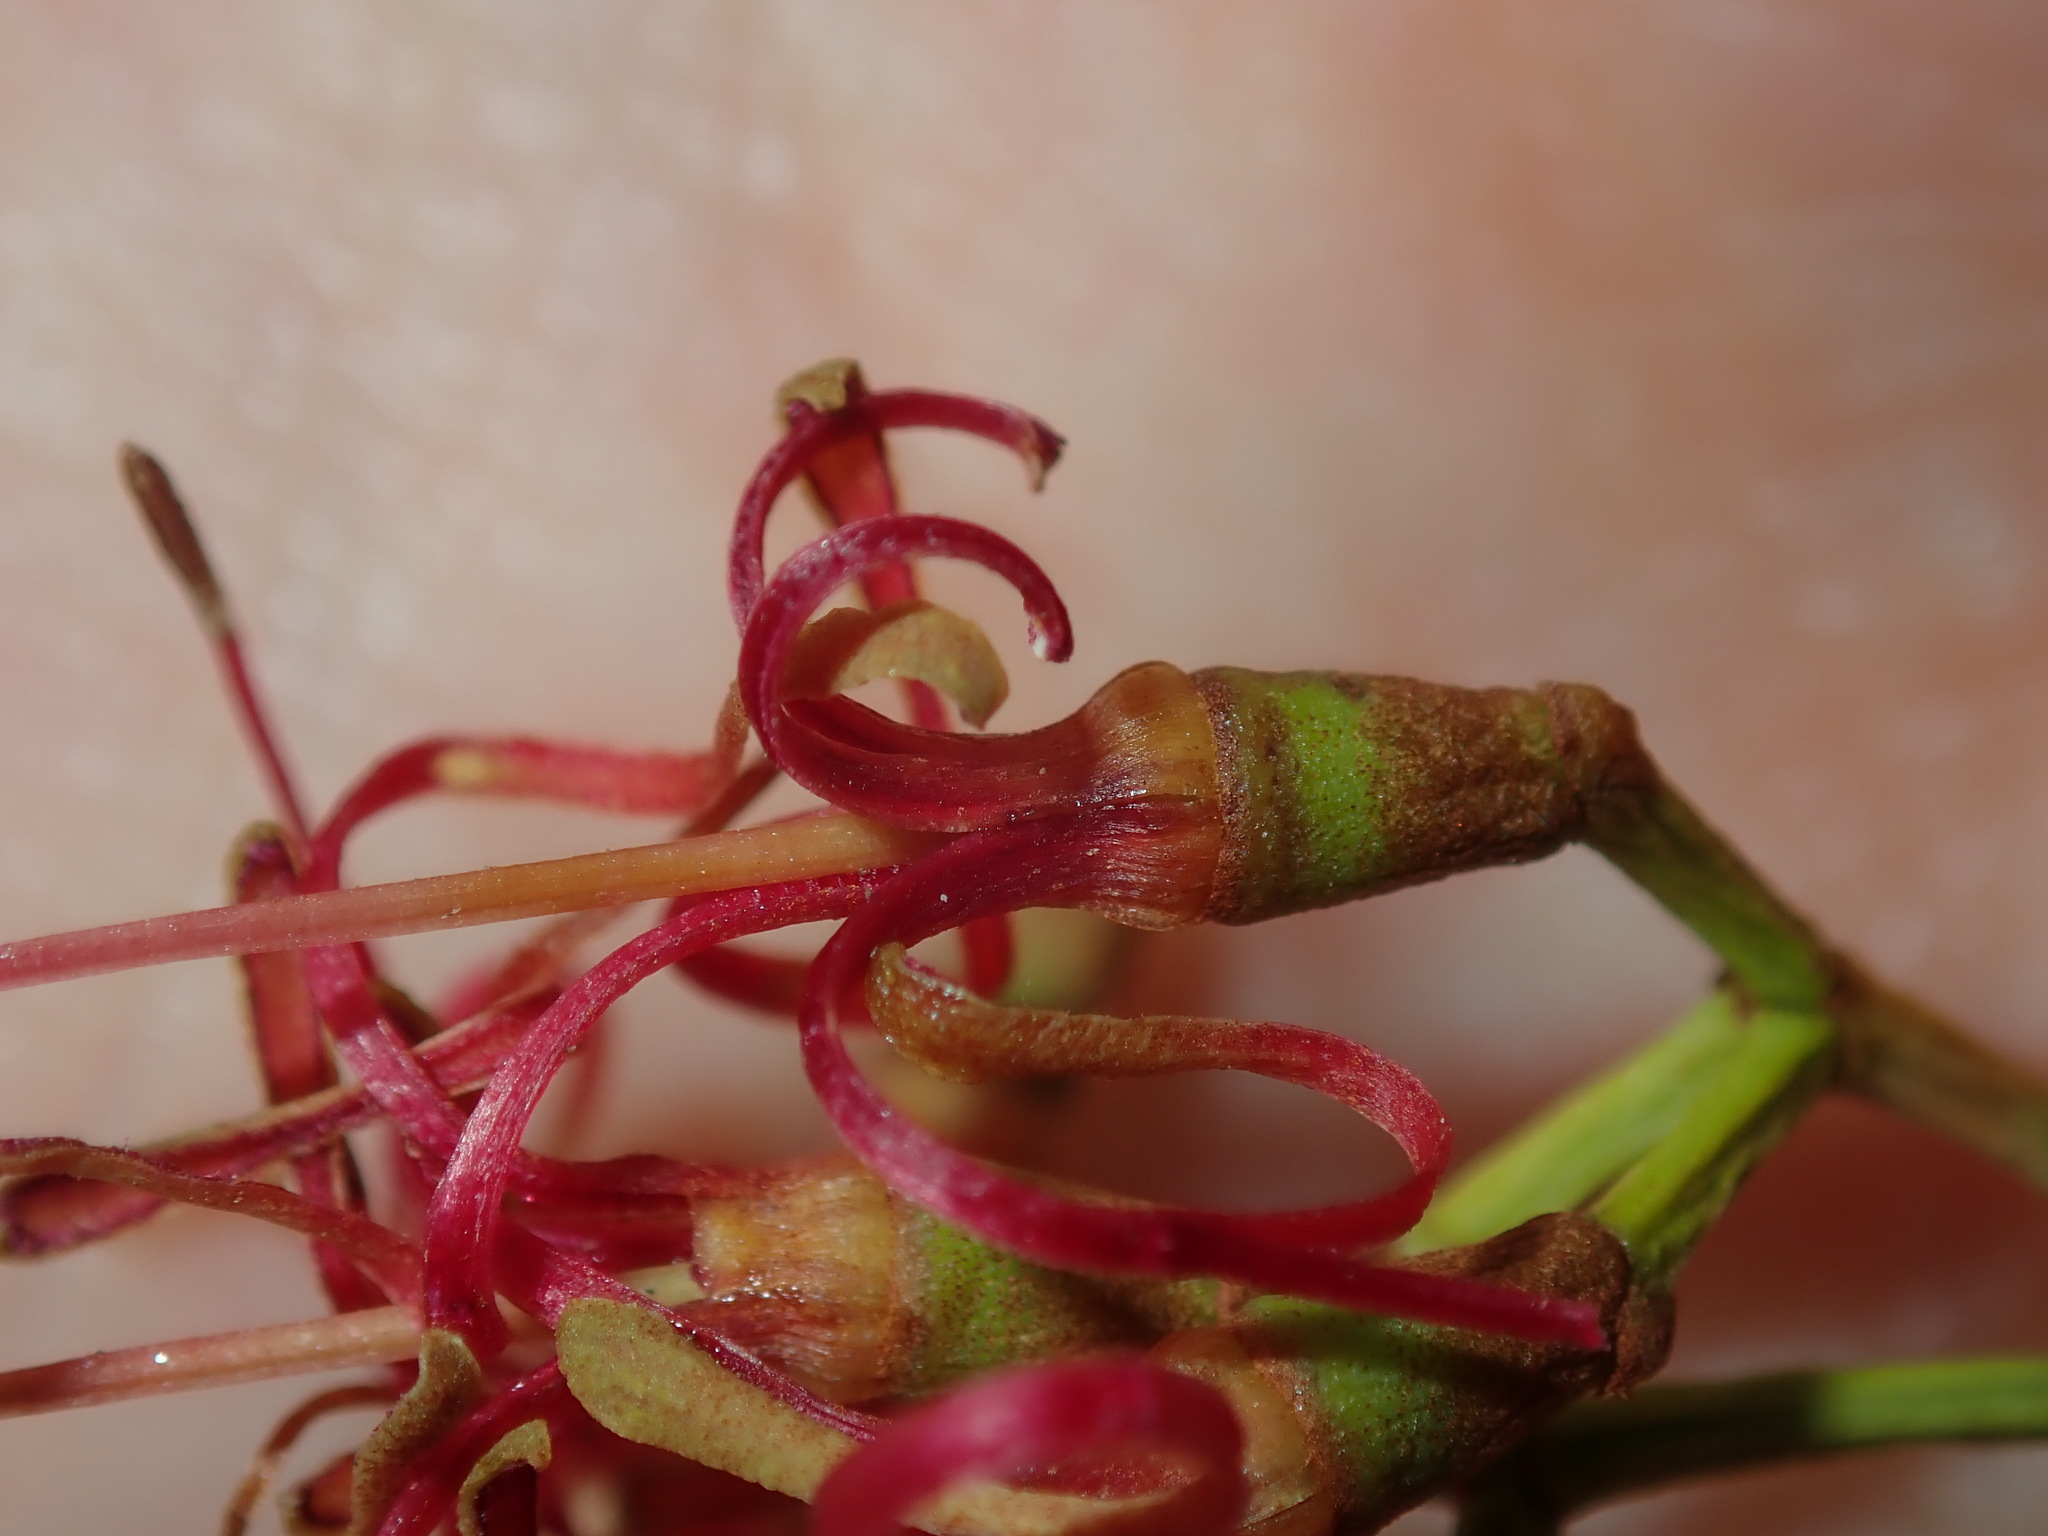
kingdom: Plantae
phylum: Tracheophyta
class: Magnoliopsida
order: Santalales
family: Loranthaceae
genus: Amyema
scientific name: Amyema miquelii
